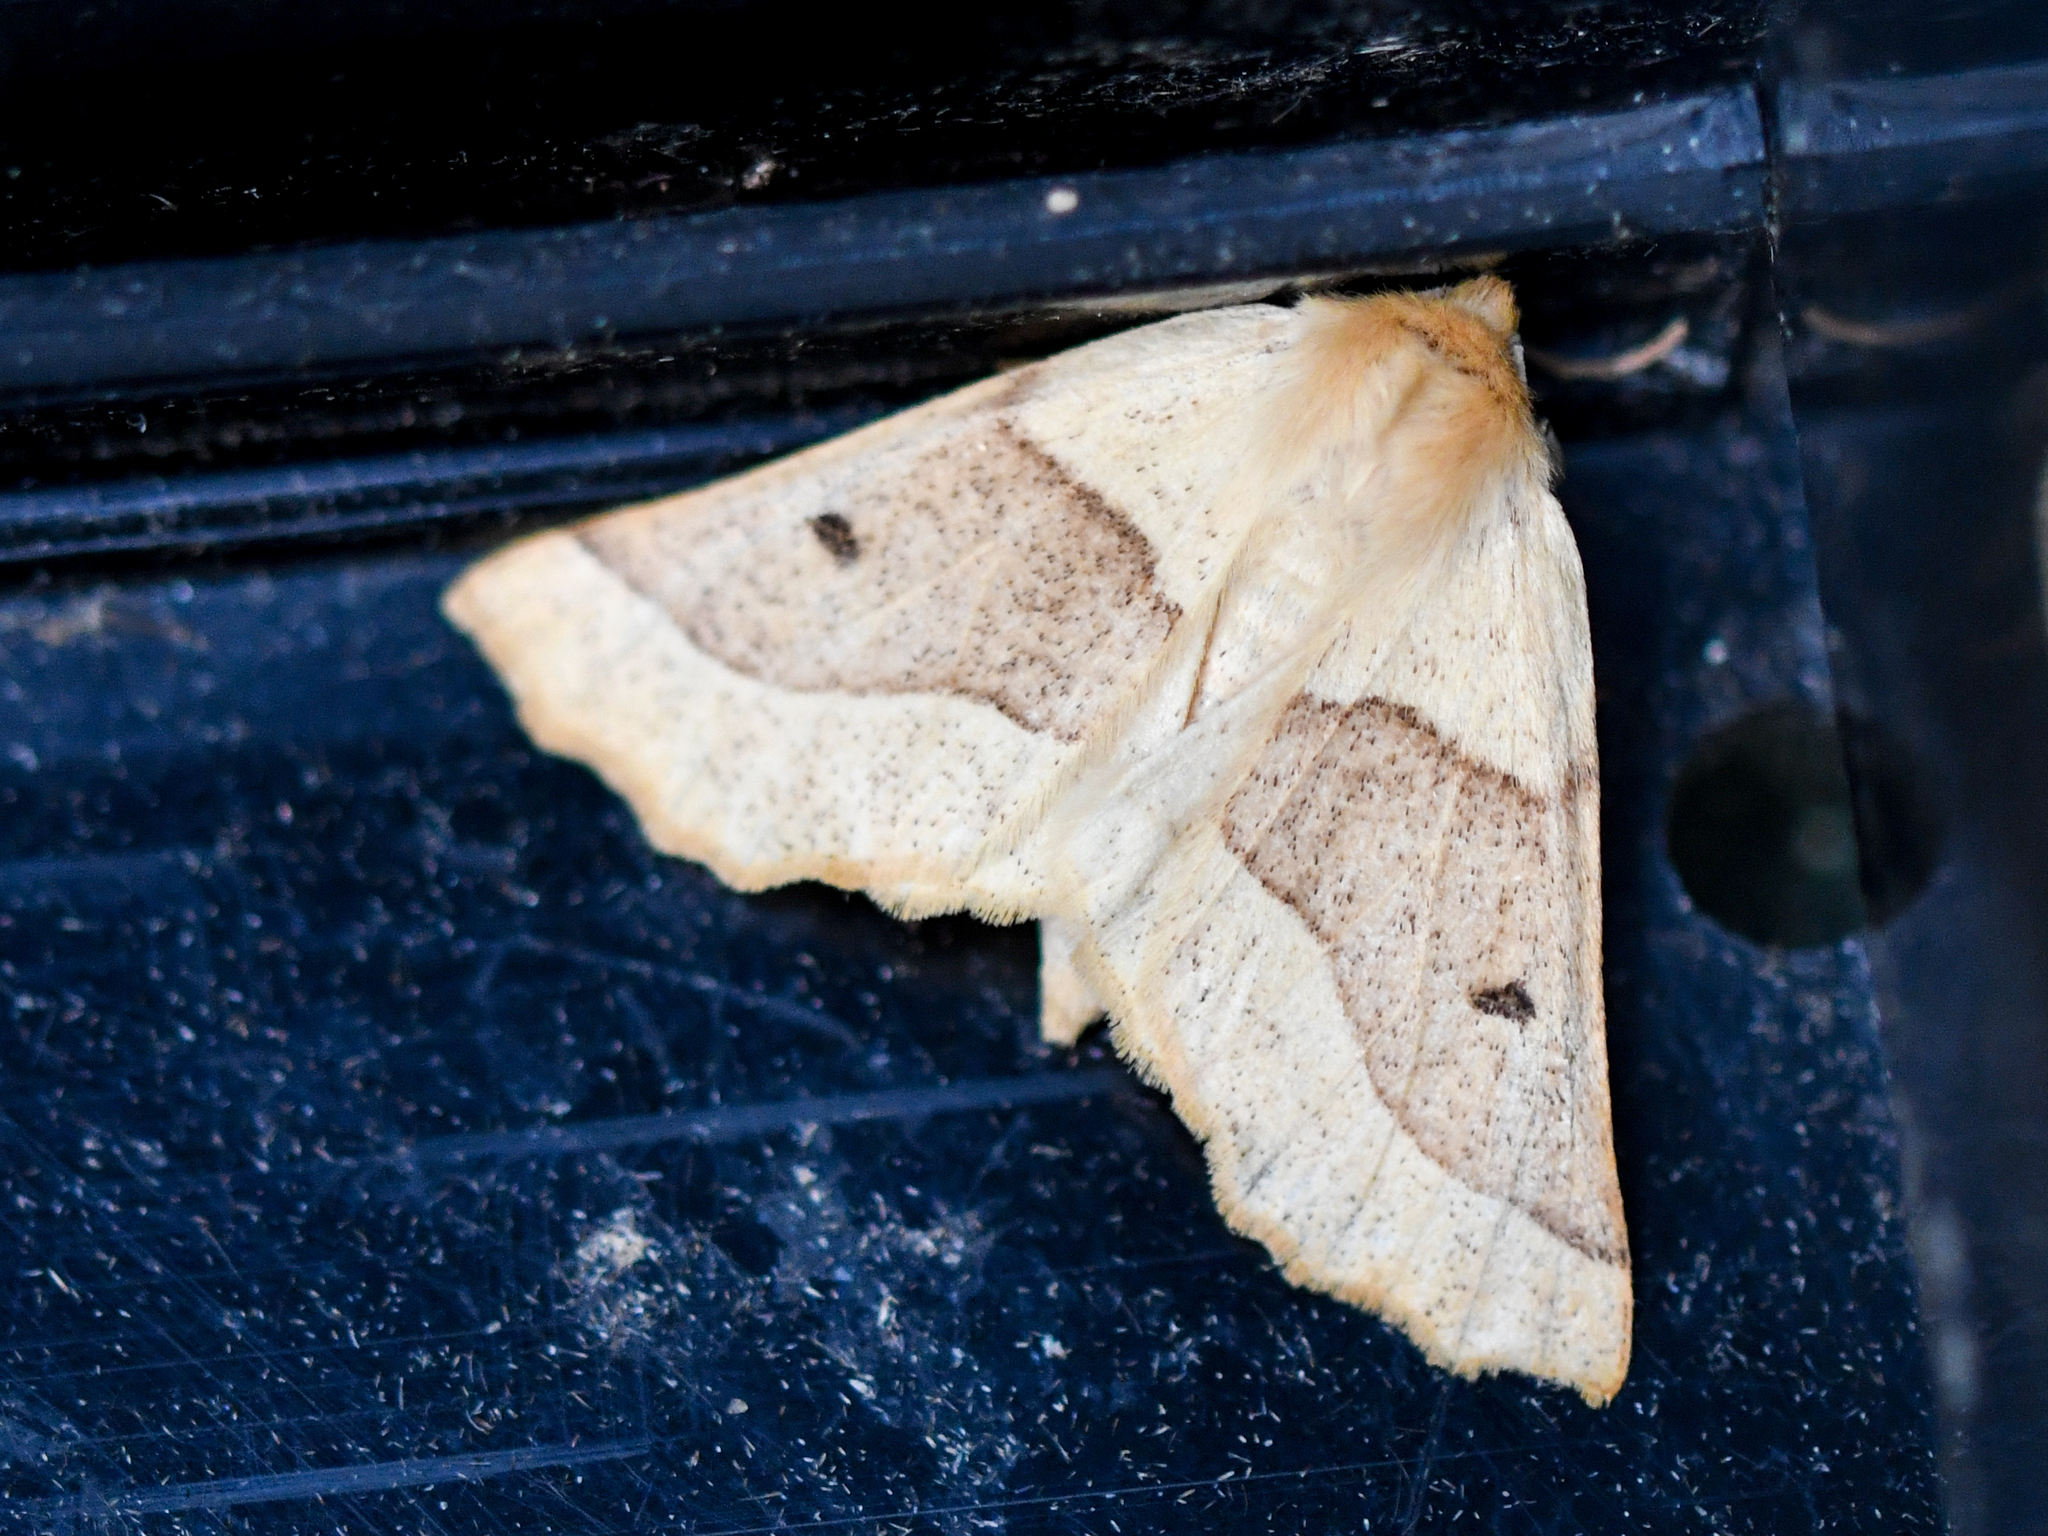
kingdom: Animalia
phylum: Arthropoda
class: Insecta
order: Lepidoptera
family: Geometridae
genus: Crocallis
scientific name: Crocallis elinguaria
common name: Scalloped oak
